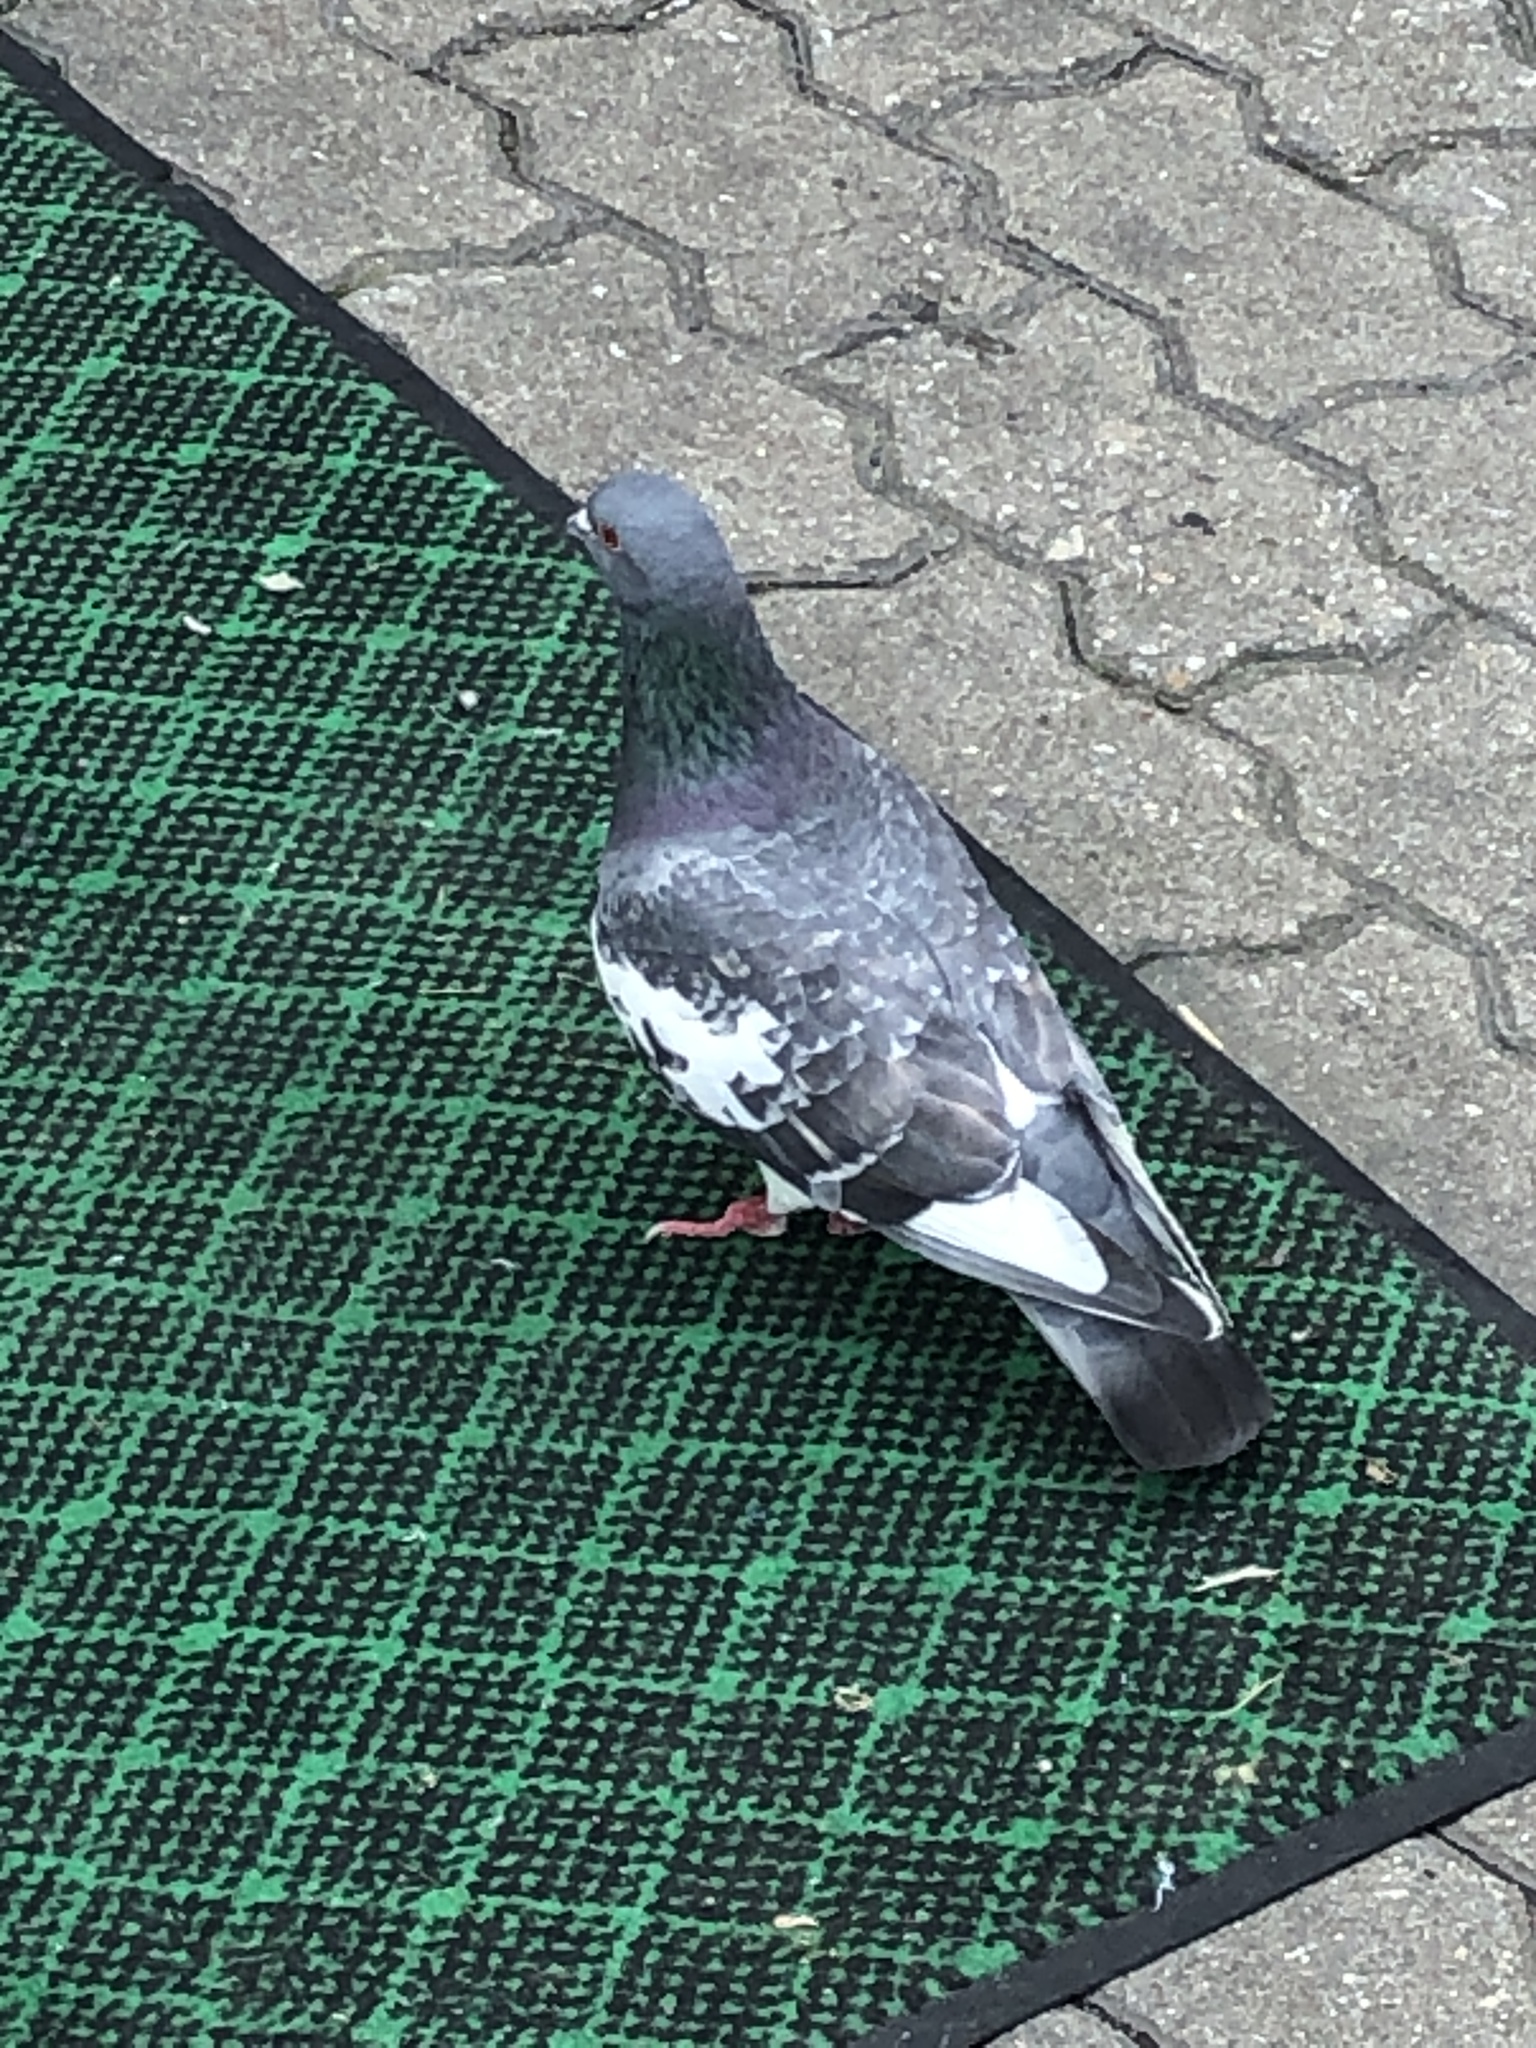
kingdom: Animalia
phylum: Chordata
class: Aves
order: Columbiformes
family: Columbidae
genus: Columba
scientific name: Columba livia
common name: Rock pigeon
